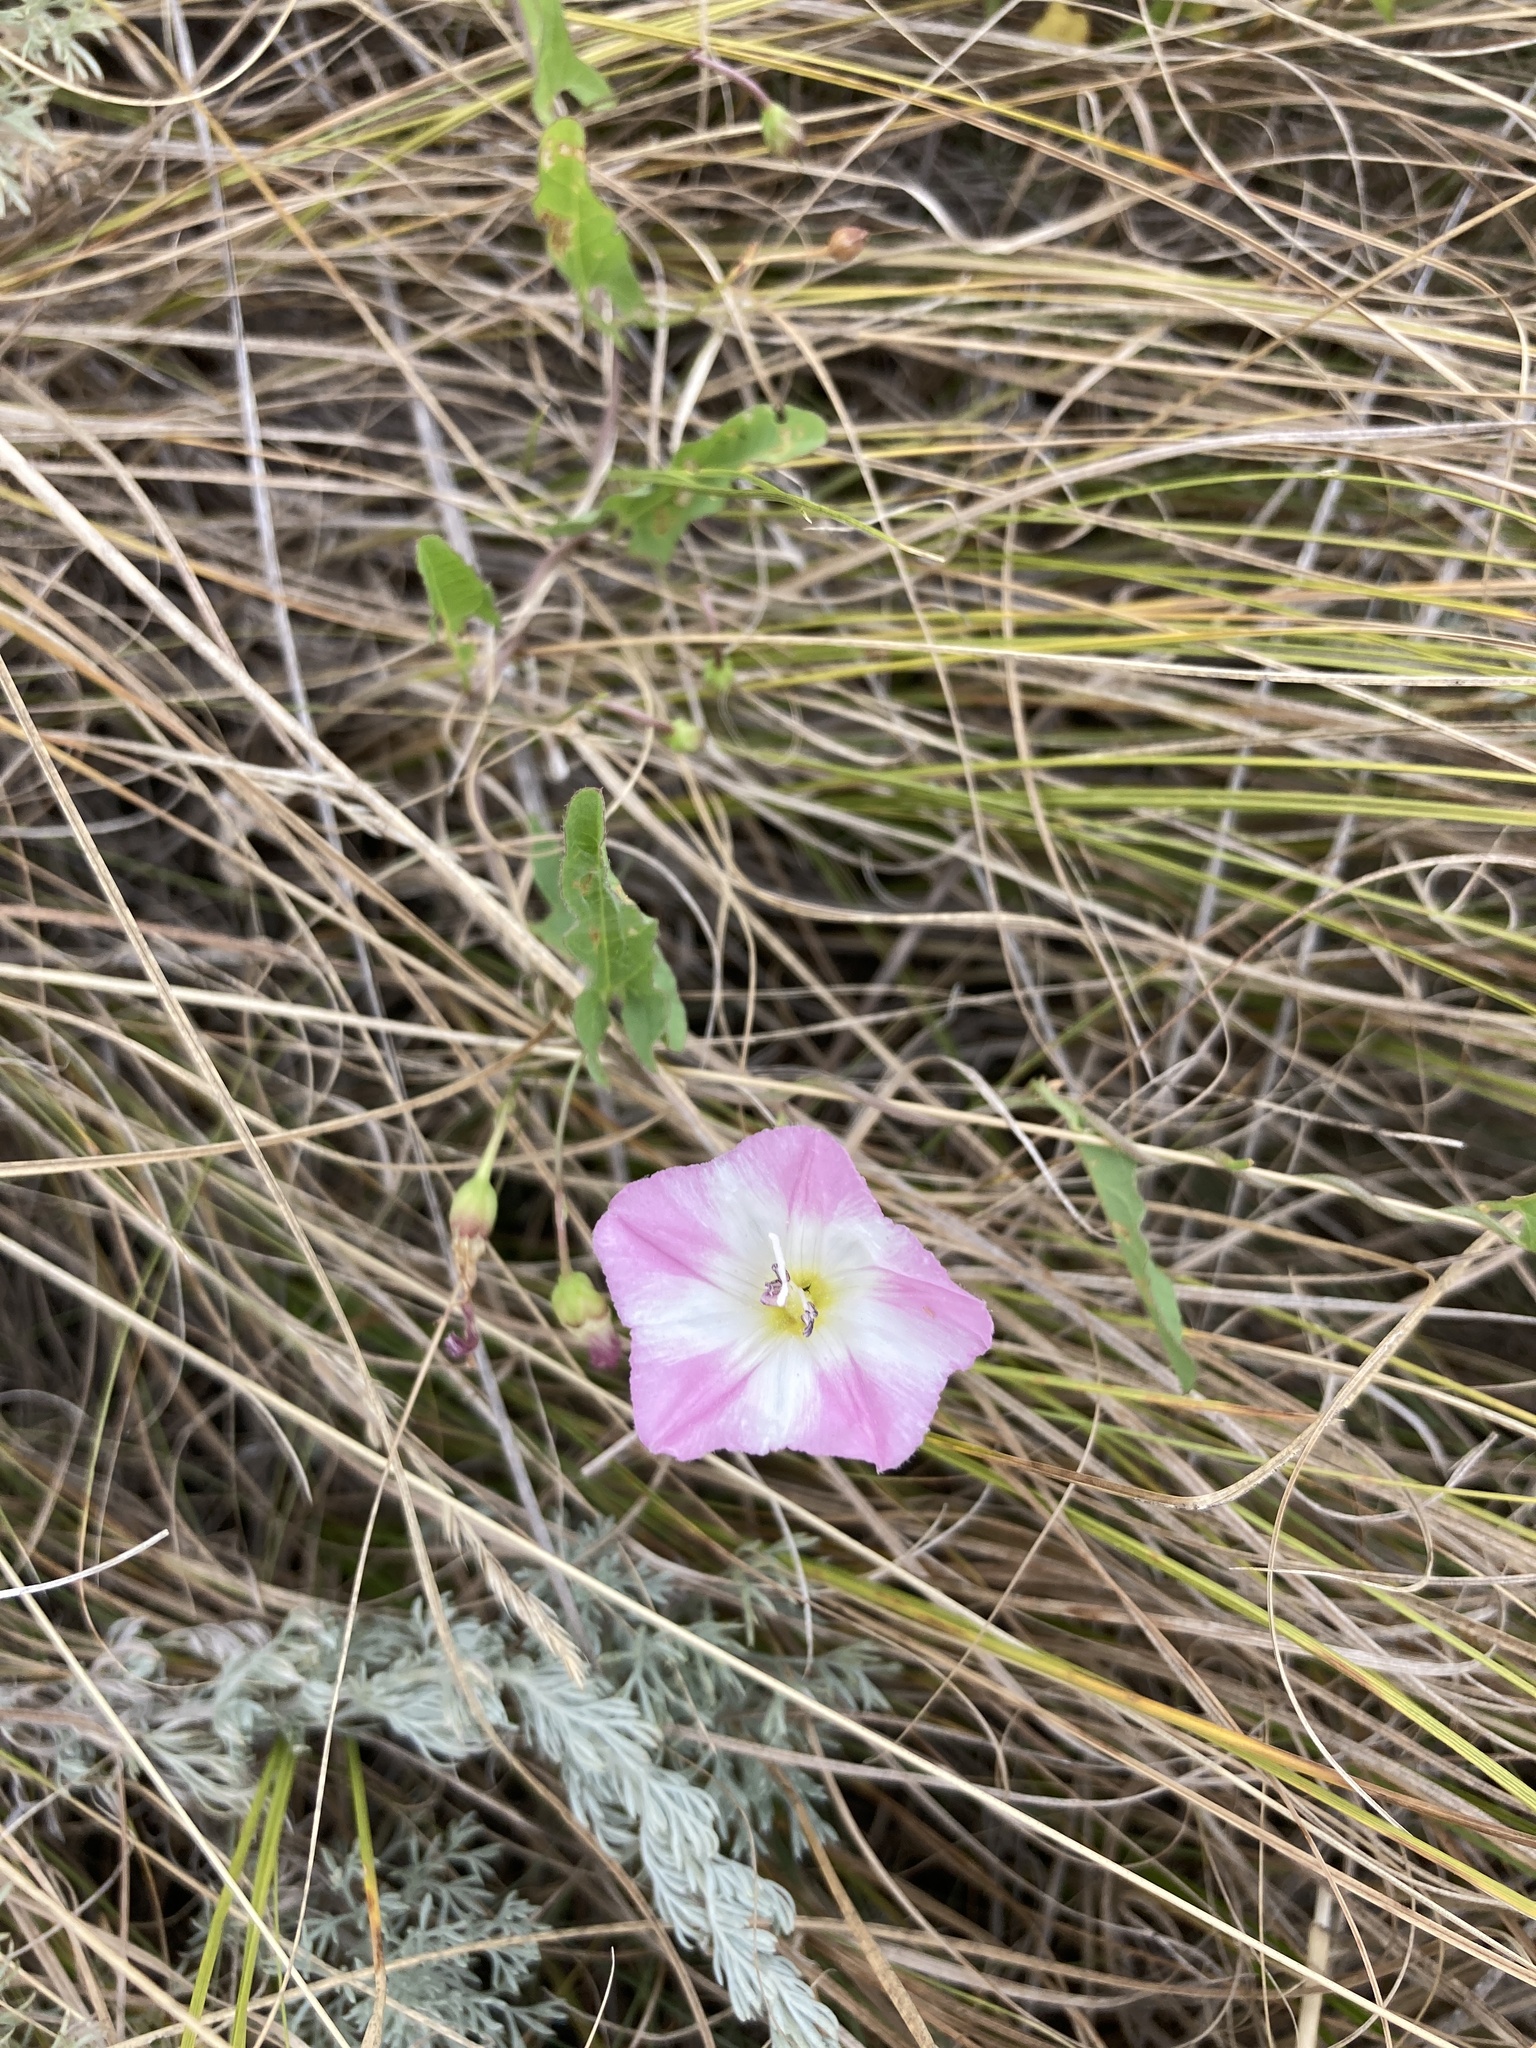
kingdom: Plantae
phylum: Tracheophyta
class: Magnoliopsida
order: Solanales
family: Convolvulaceae
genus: Convolvulus
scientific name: Convolvulus arvensis
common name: Field bindweed
